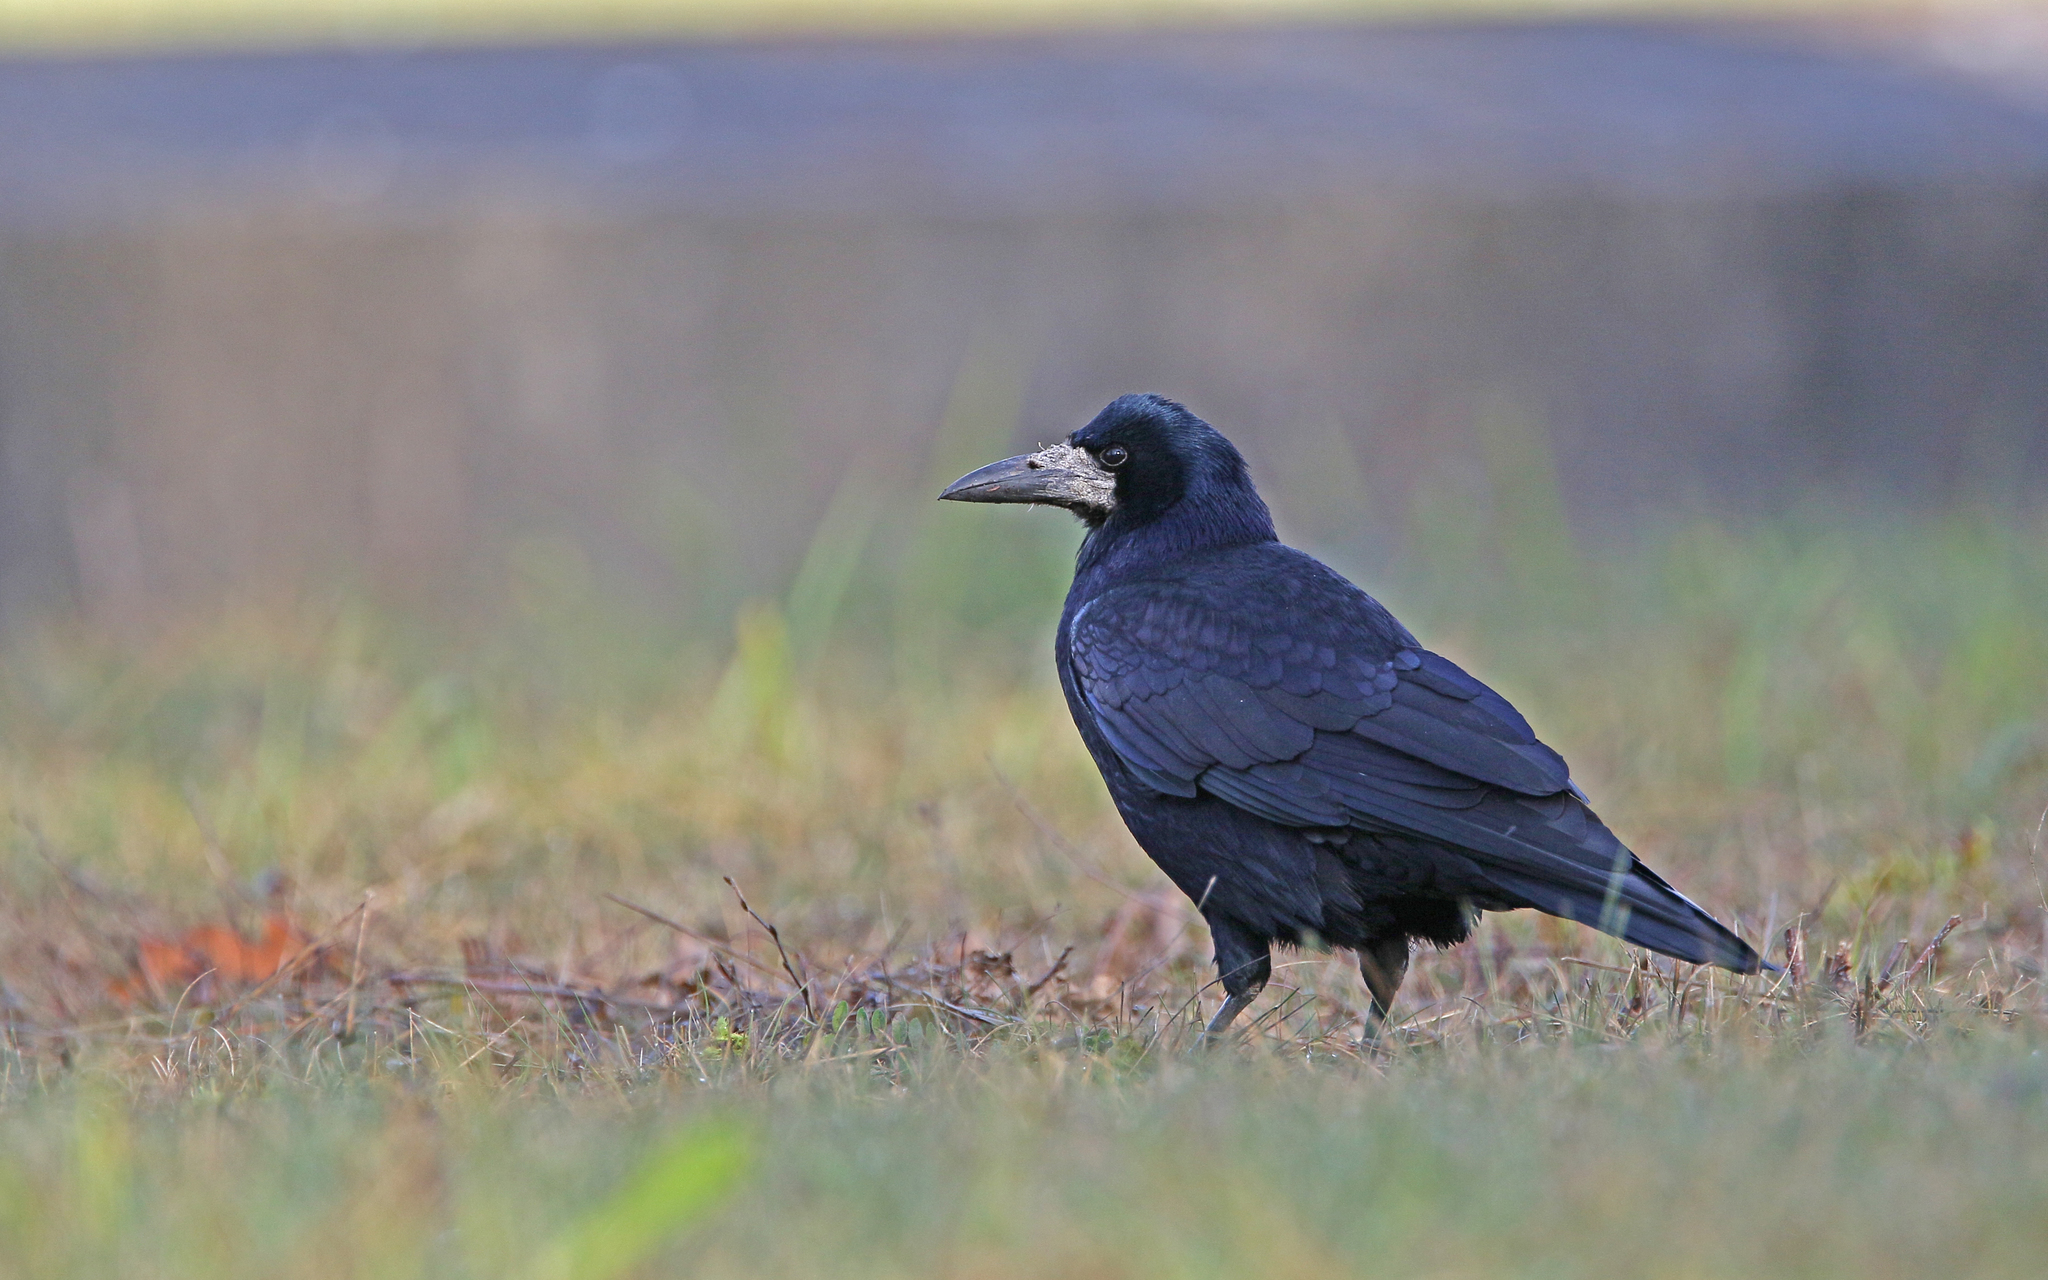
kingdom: Animalia
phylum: Chordata
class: Aves
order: Passeriformes
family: Corvidae
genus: Corvus
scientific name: Corvus frugilegus
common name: Rook
